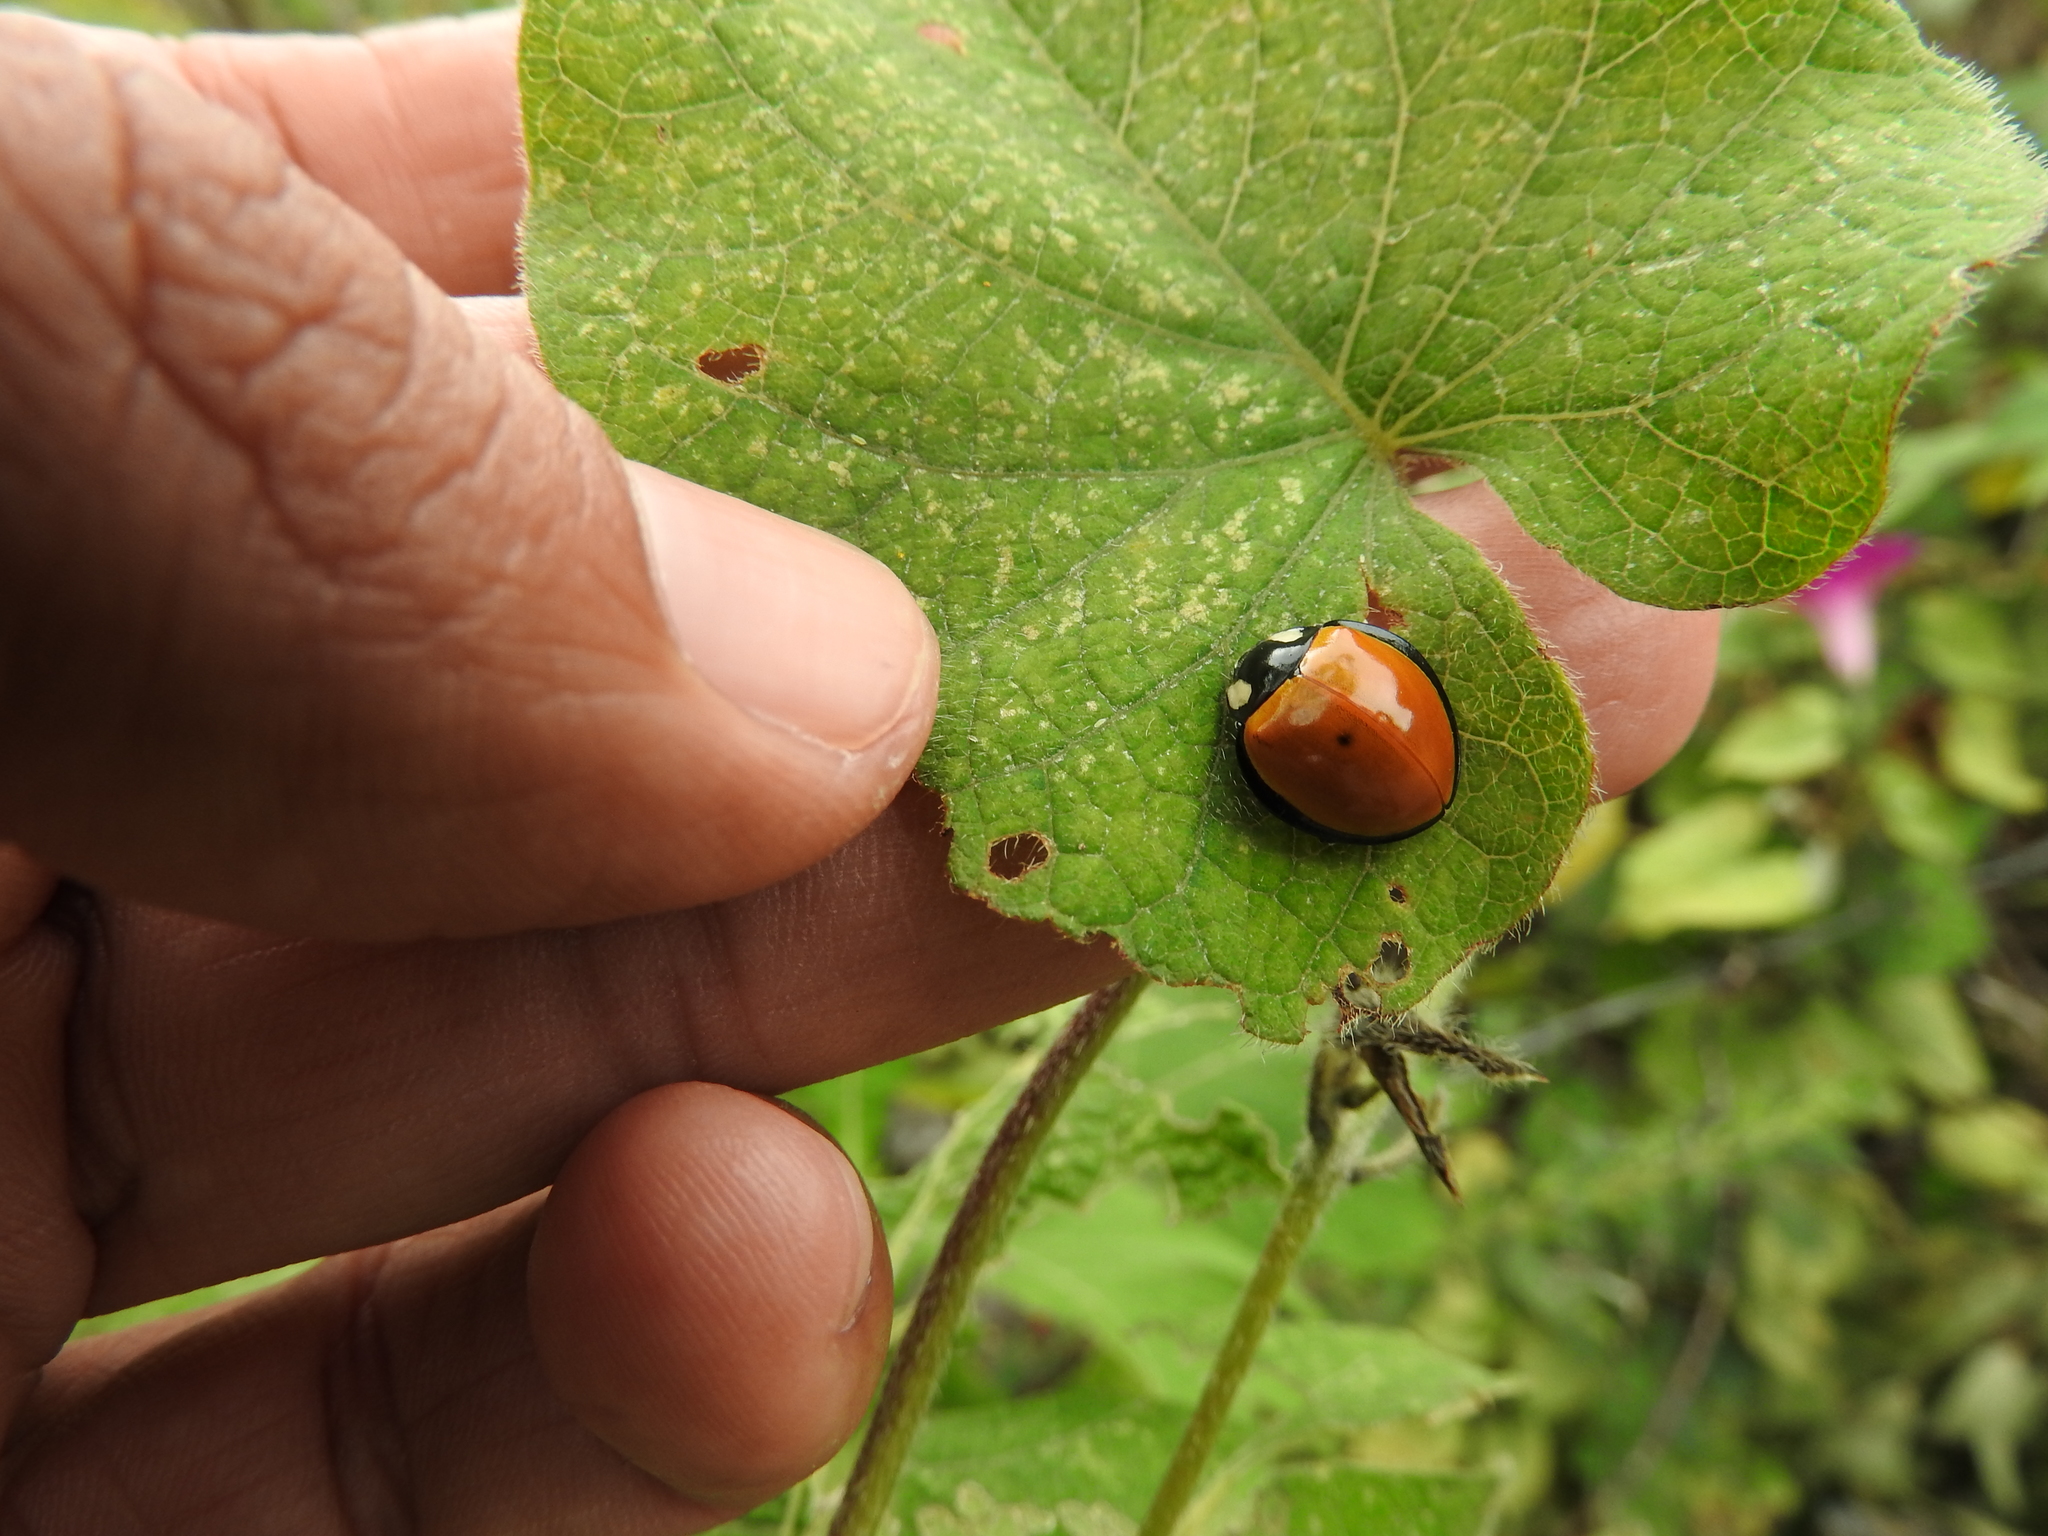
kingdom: Animalia
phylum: Arthropoda
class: Insecta
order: Coleoptera
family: Coccinellidae
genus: Anatis
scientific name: Anatis
